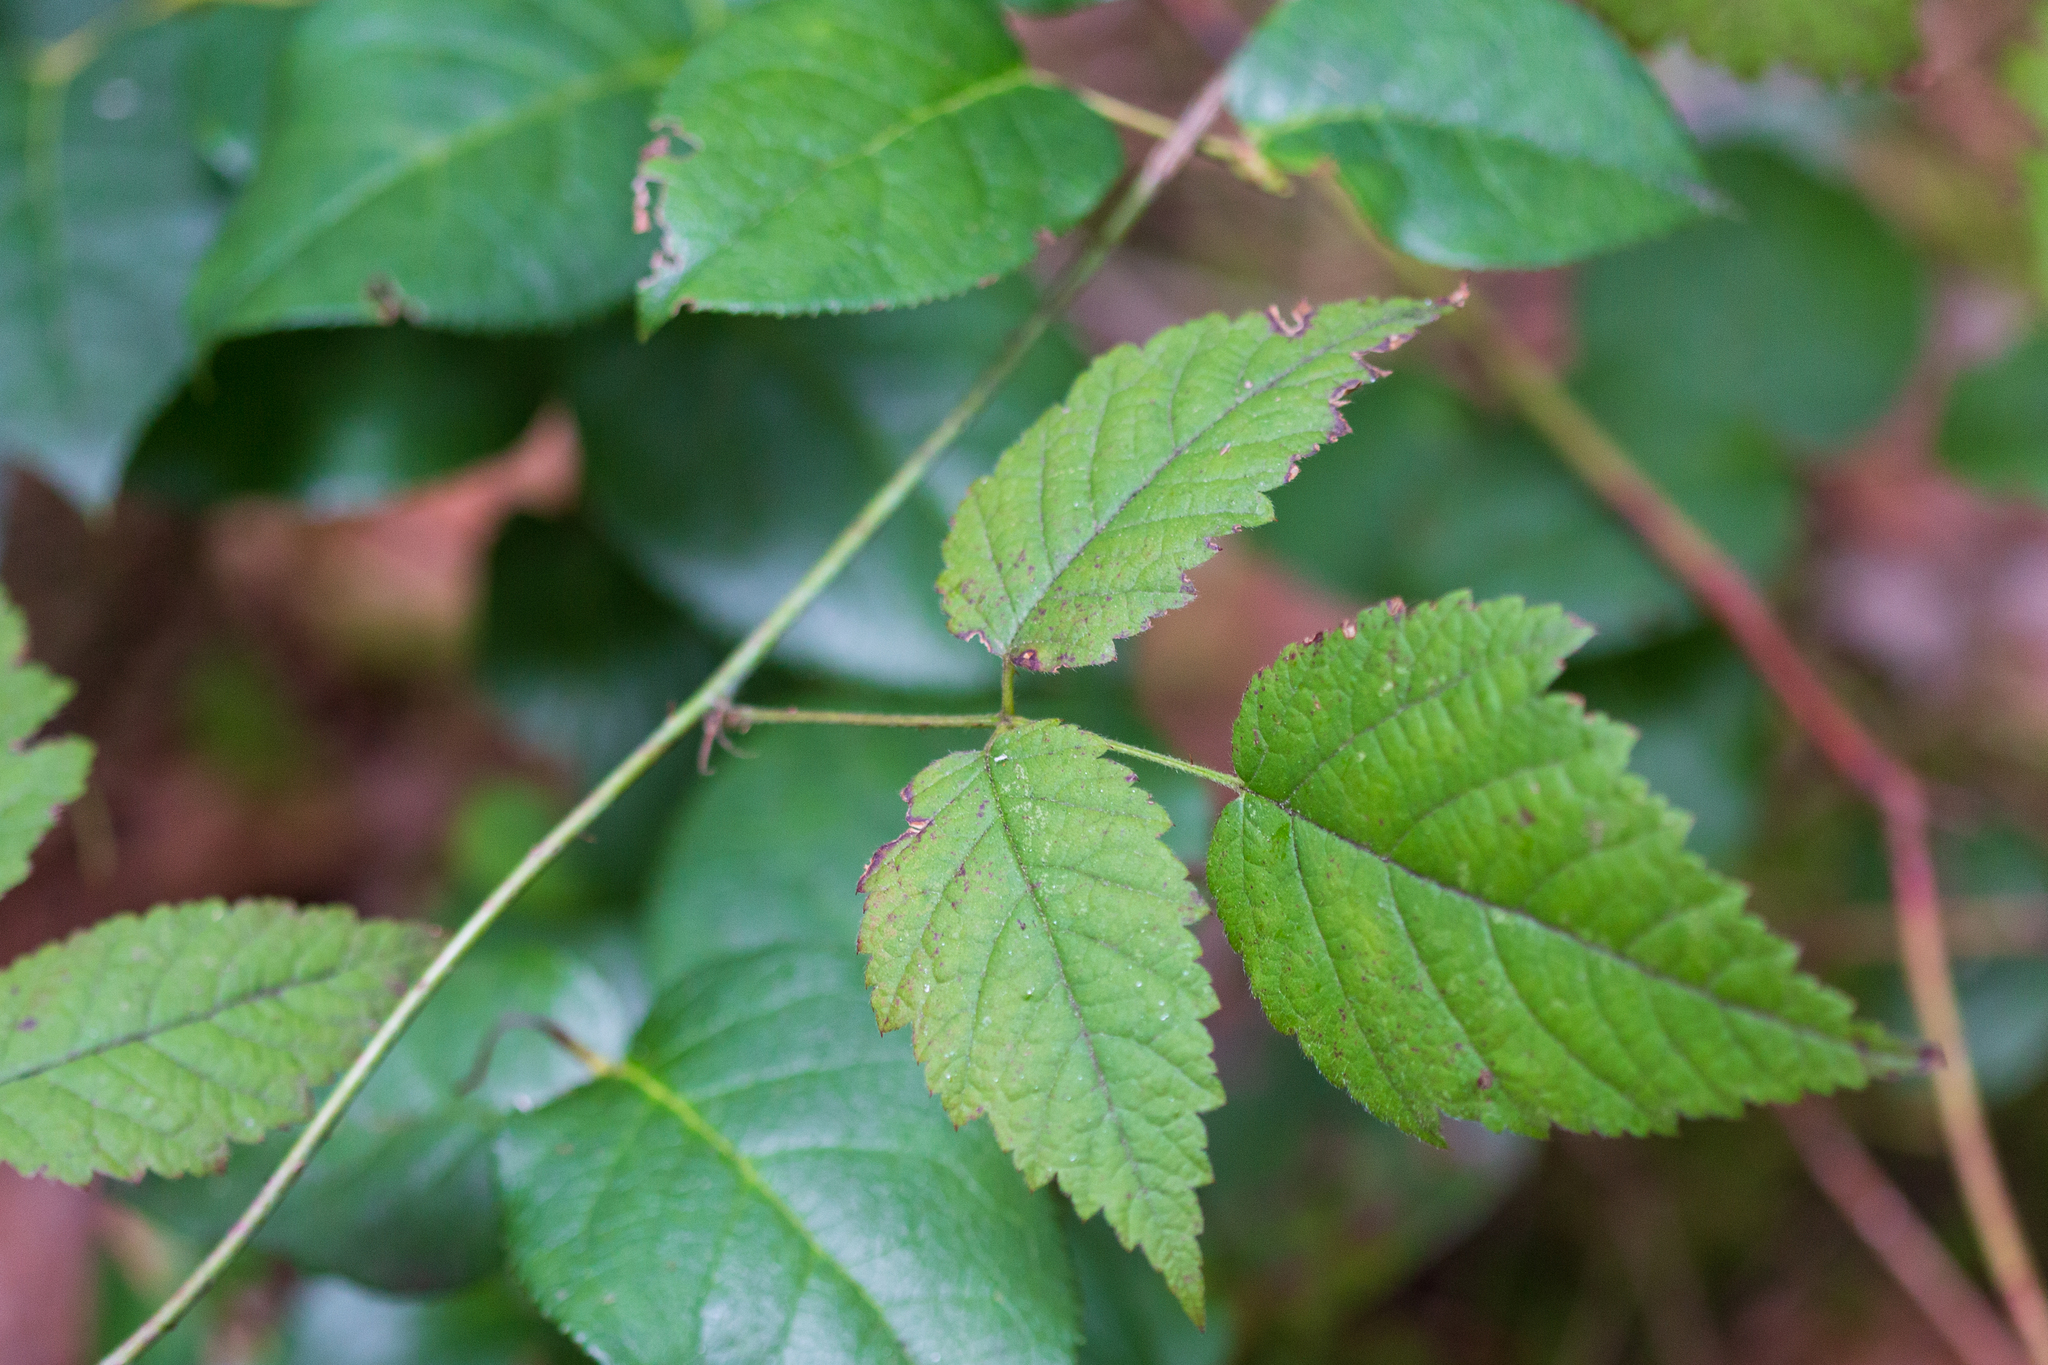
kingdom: Plantae
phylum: Tracheophyta
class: Magnoliopsida
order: Rosales
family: Rosaceae
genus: Rubus
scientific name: Rubus ursinus
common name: Pacific blackberry
